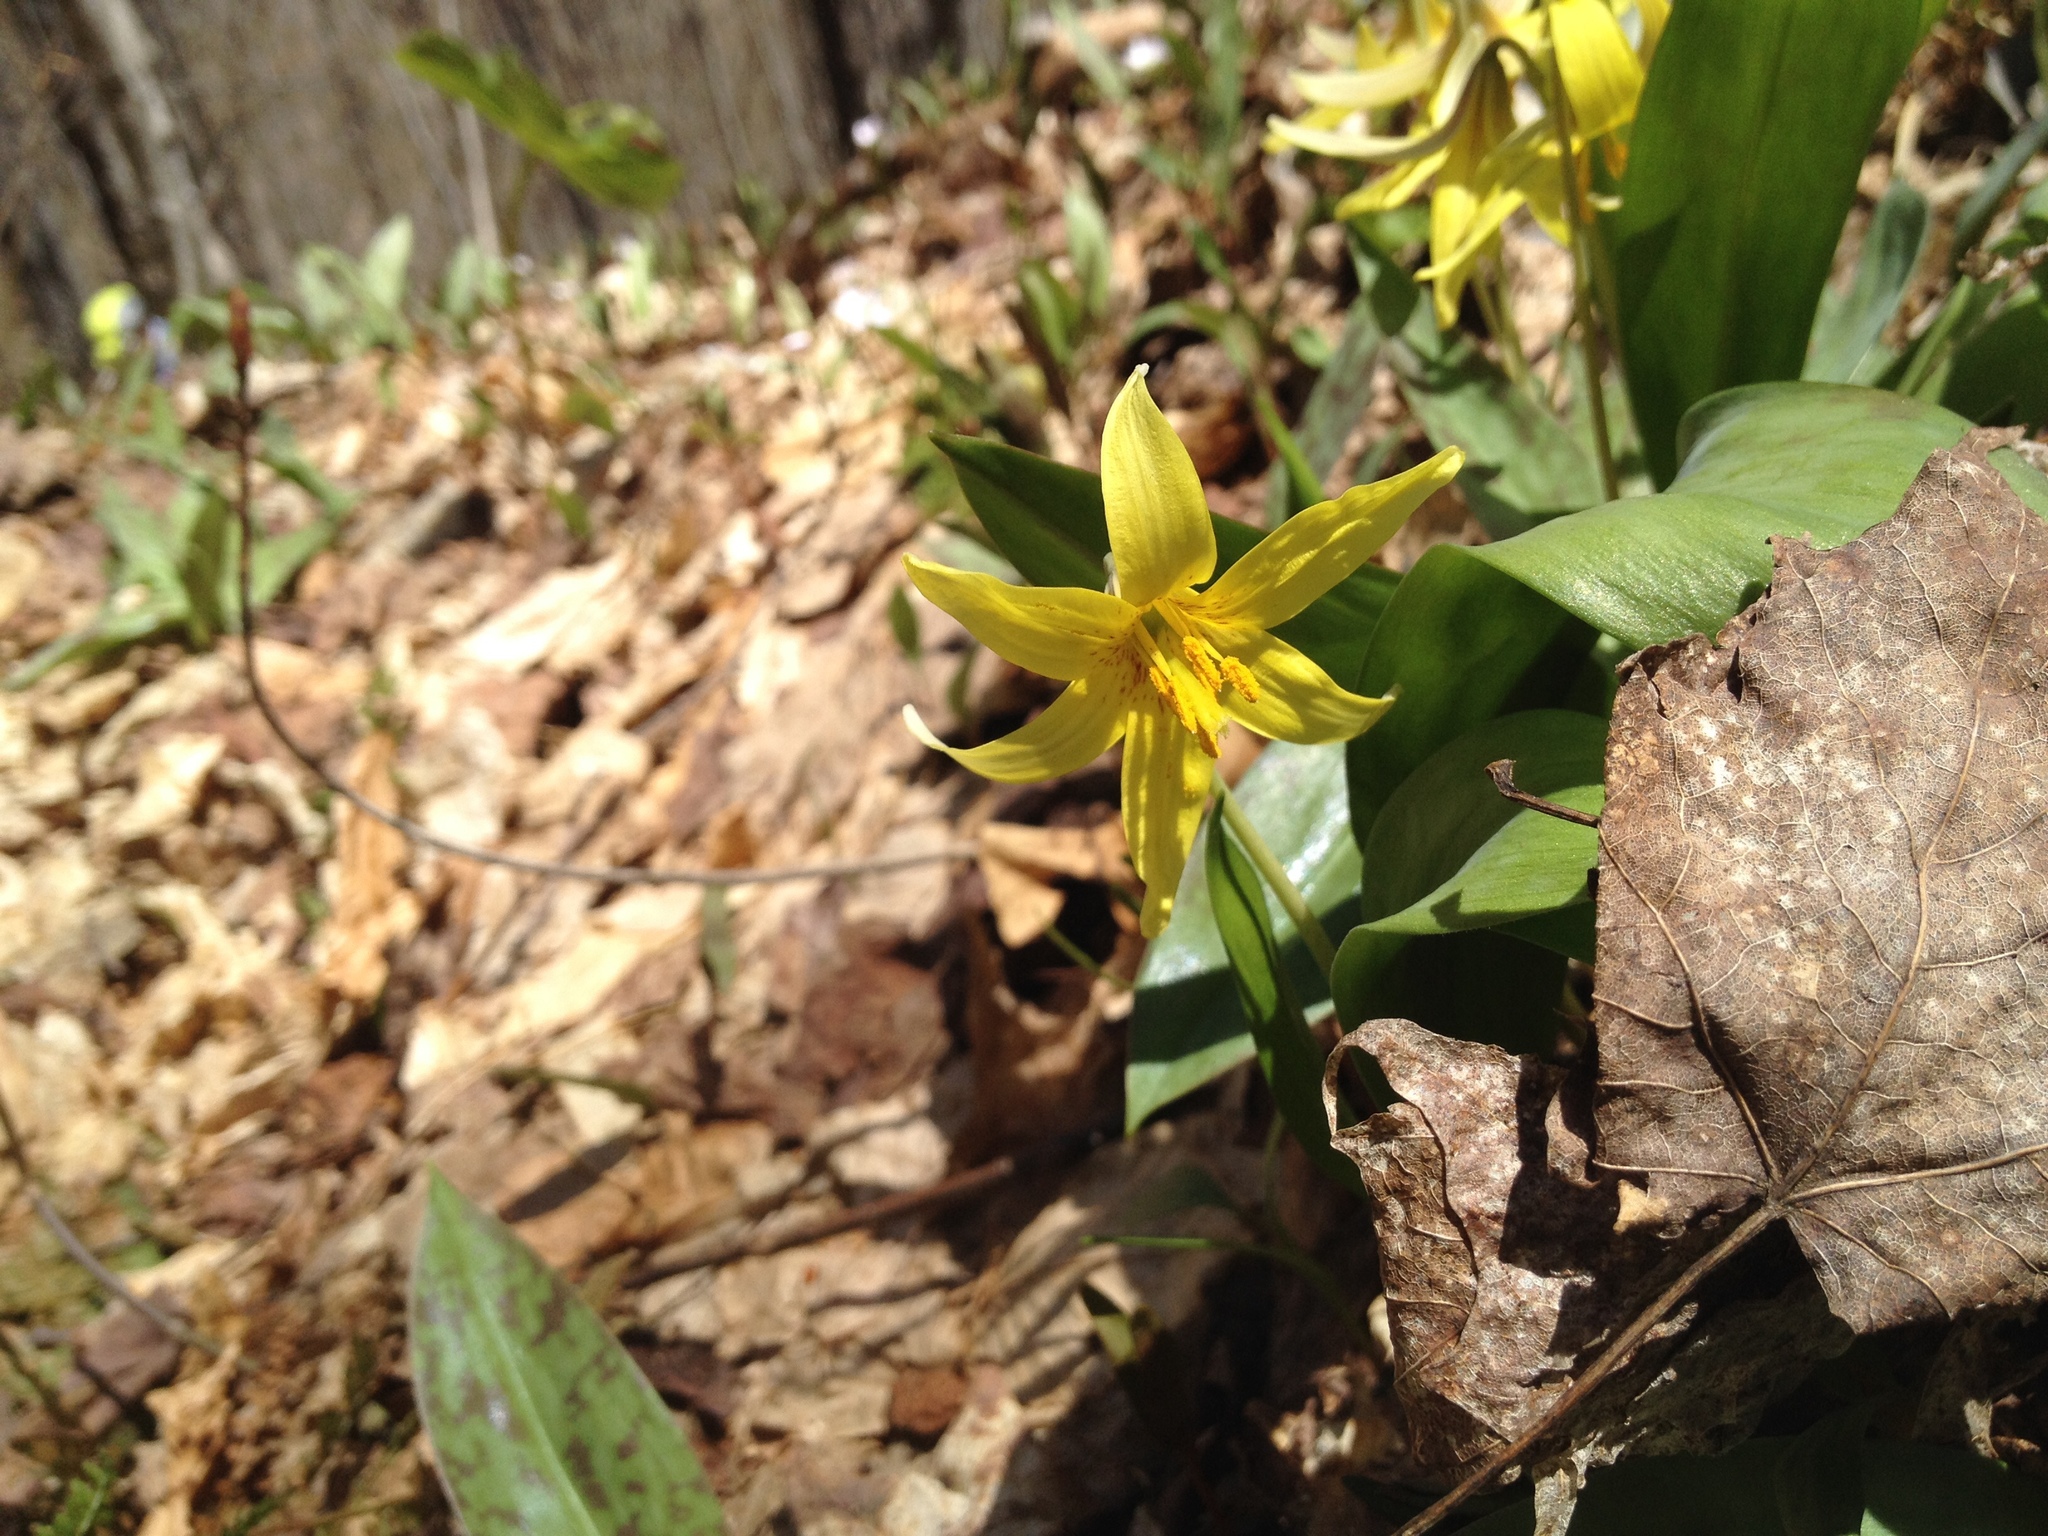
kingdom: Plantae
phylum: Tracheophyta
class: Liliopsida
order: Liliales
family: Liliaceae
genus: Erythronium
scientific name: Erythronium americanum
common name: Yellow adder's-tongue
